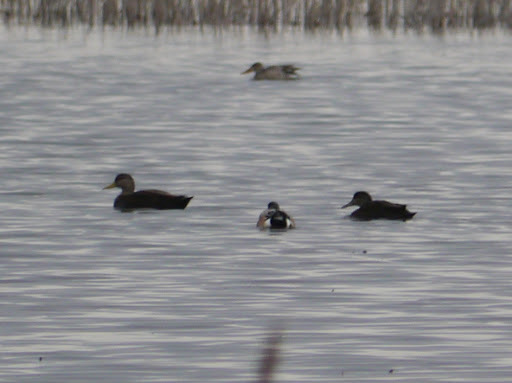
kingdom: Animalia
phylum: Chordata
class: Aves
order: Anseriformes
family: Anatidae
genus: Anas
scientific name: Anas rubripes
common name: American black duck
